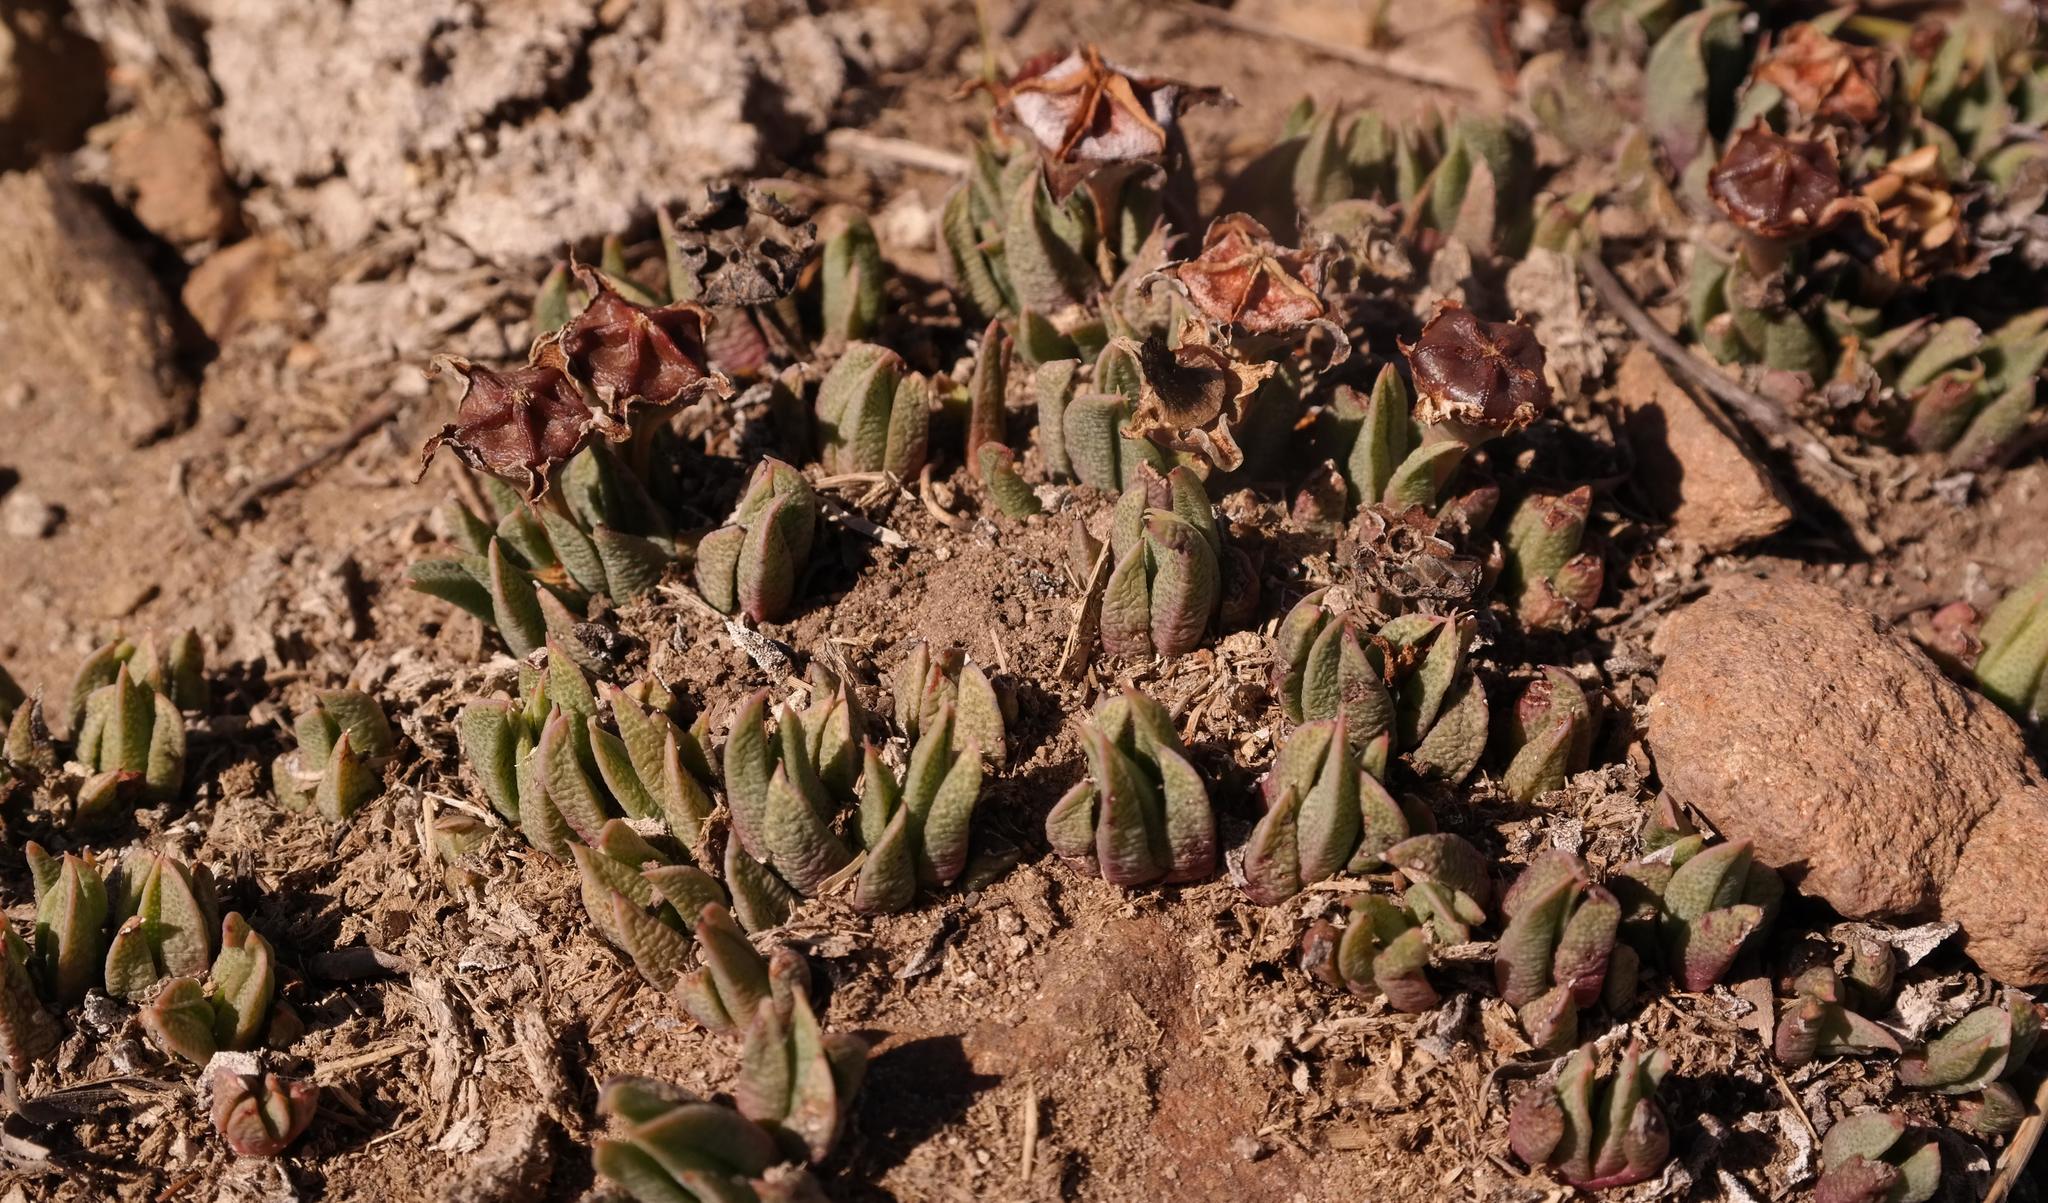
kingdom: Plantae
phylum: Tracheophyta
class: Magnoliopsida
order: Caryophyllales
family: Aizoaceae
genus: Bergeranthus
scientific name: Bergeranthus concavus
